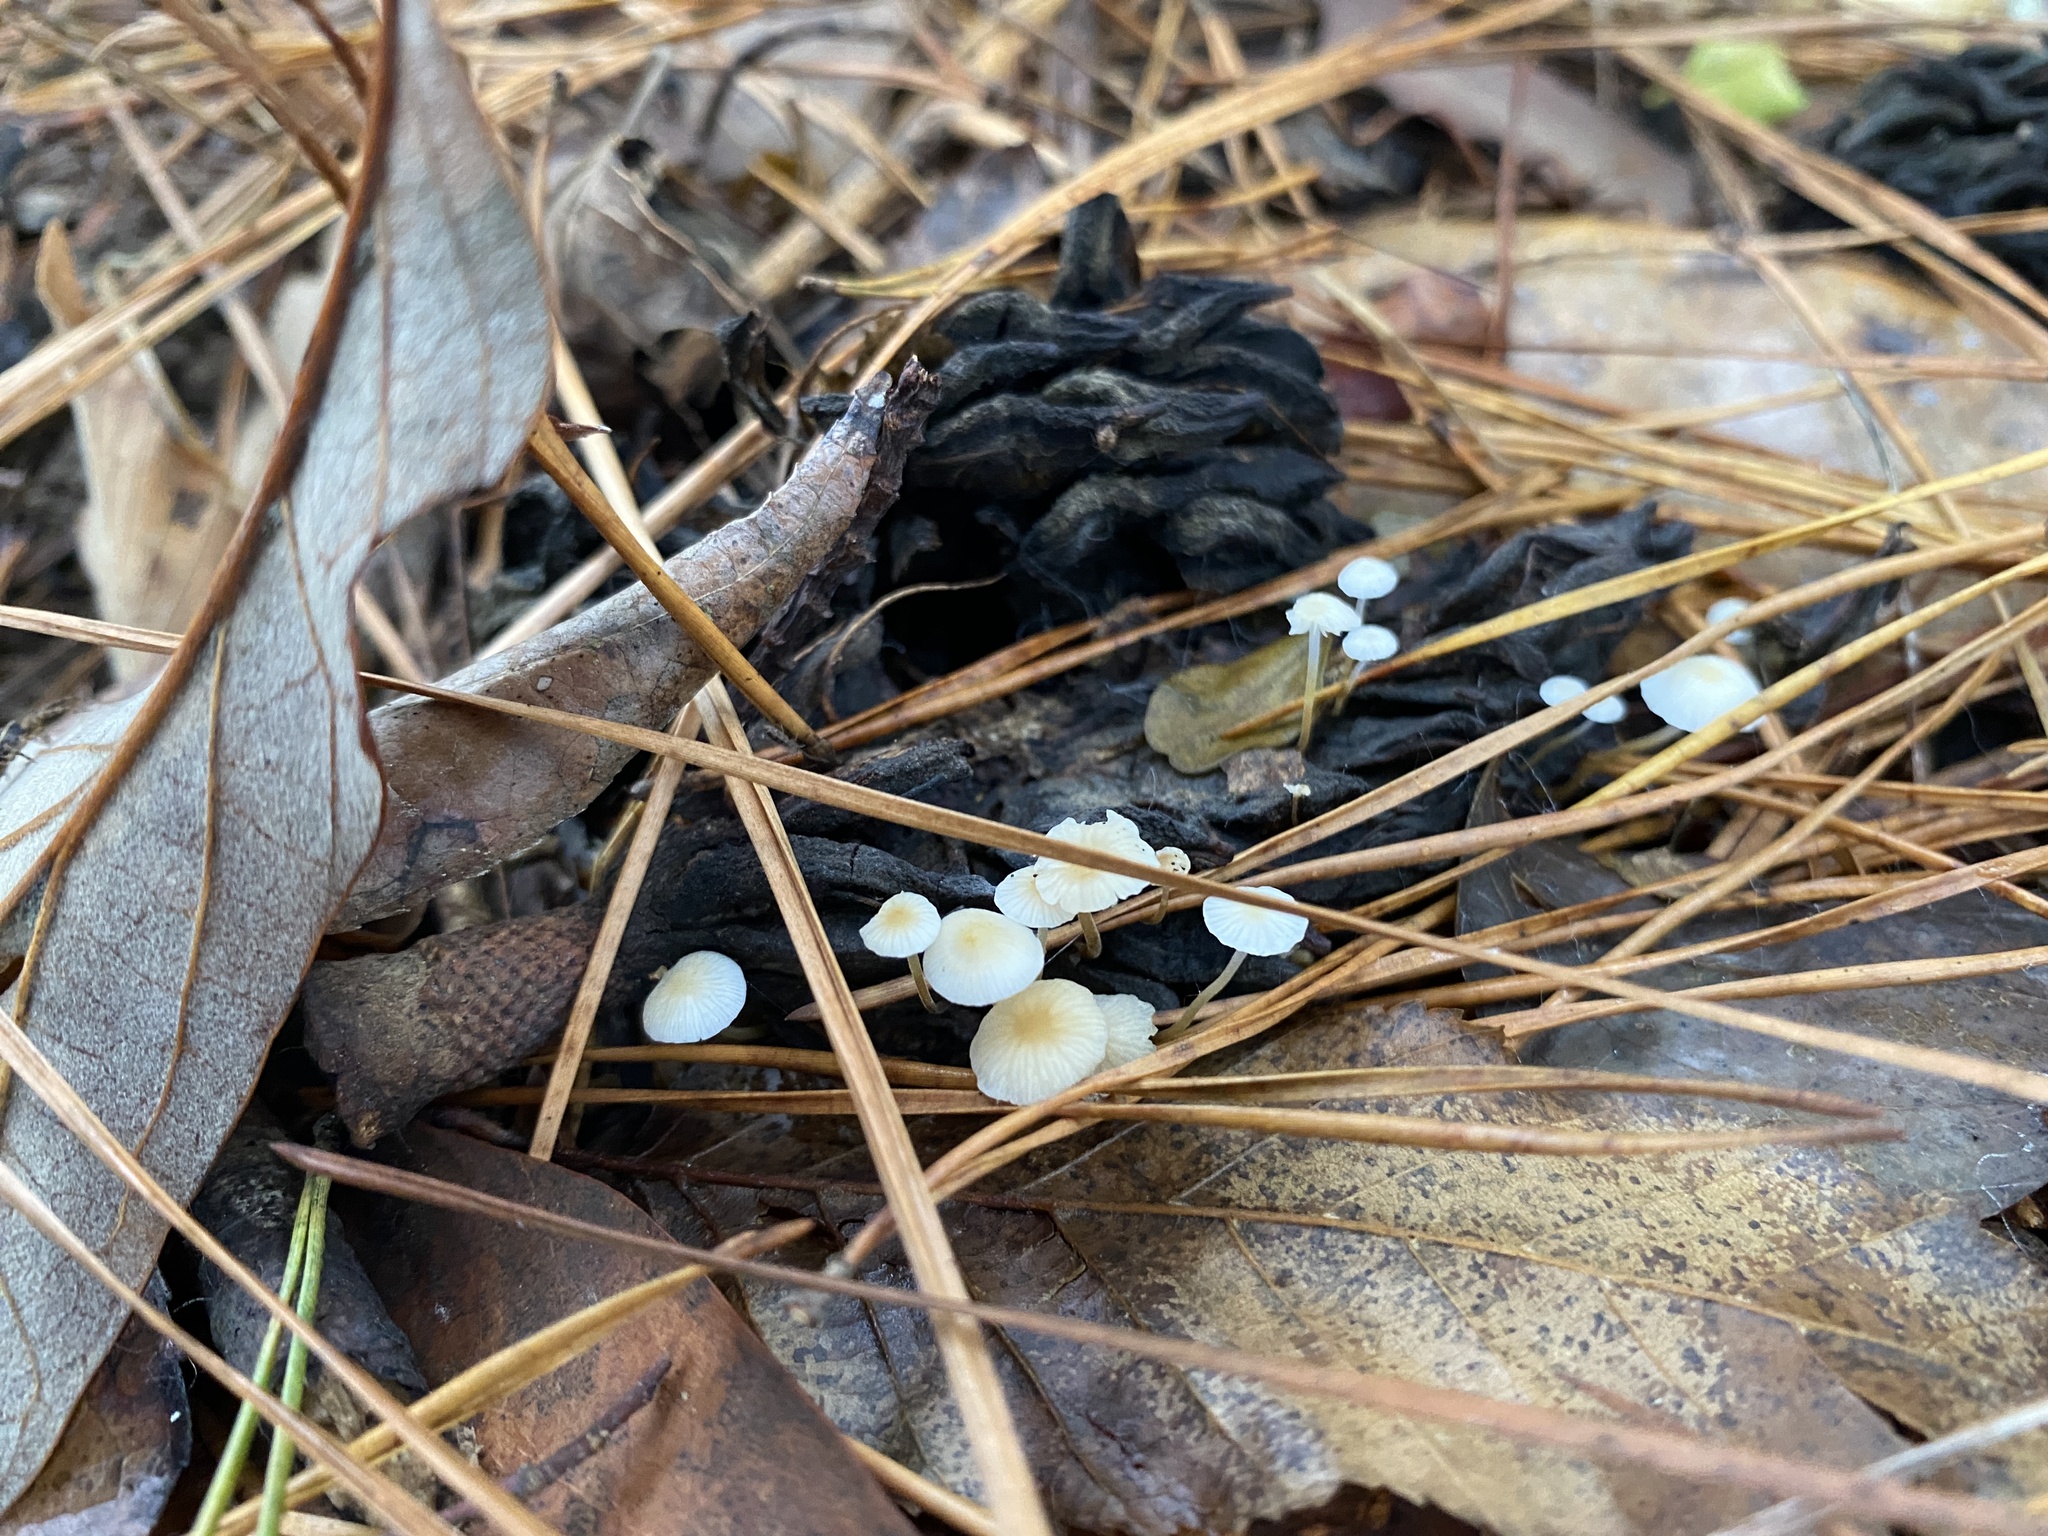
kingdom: Fungi
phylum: Basidiomycota
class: Agaricomycetes
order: Agaricales
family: Physalacriaceae
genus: Strobilurus
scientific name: Strobilurus conigenoides
